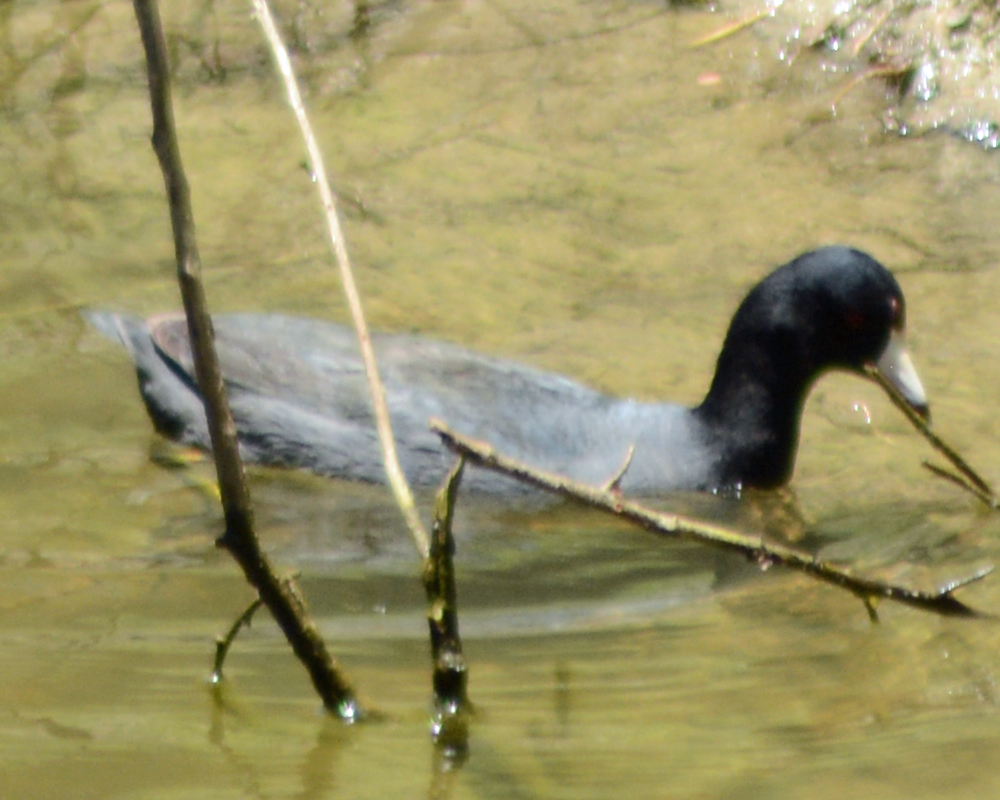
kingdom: Animalia
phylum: Chordata
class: Aves
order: Gruiformes
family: Rallidae
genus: Fulica
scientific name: Fulica americana
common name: American coot
